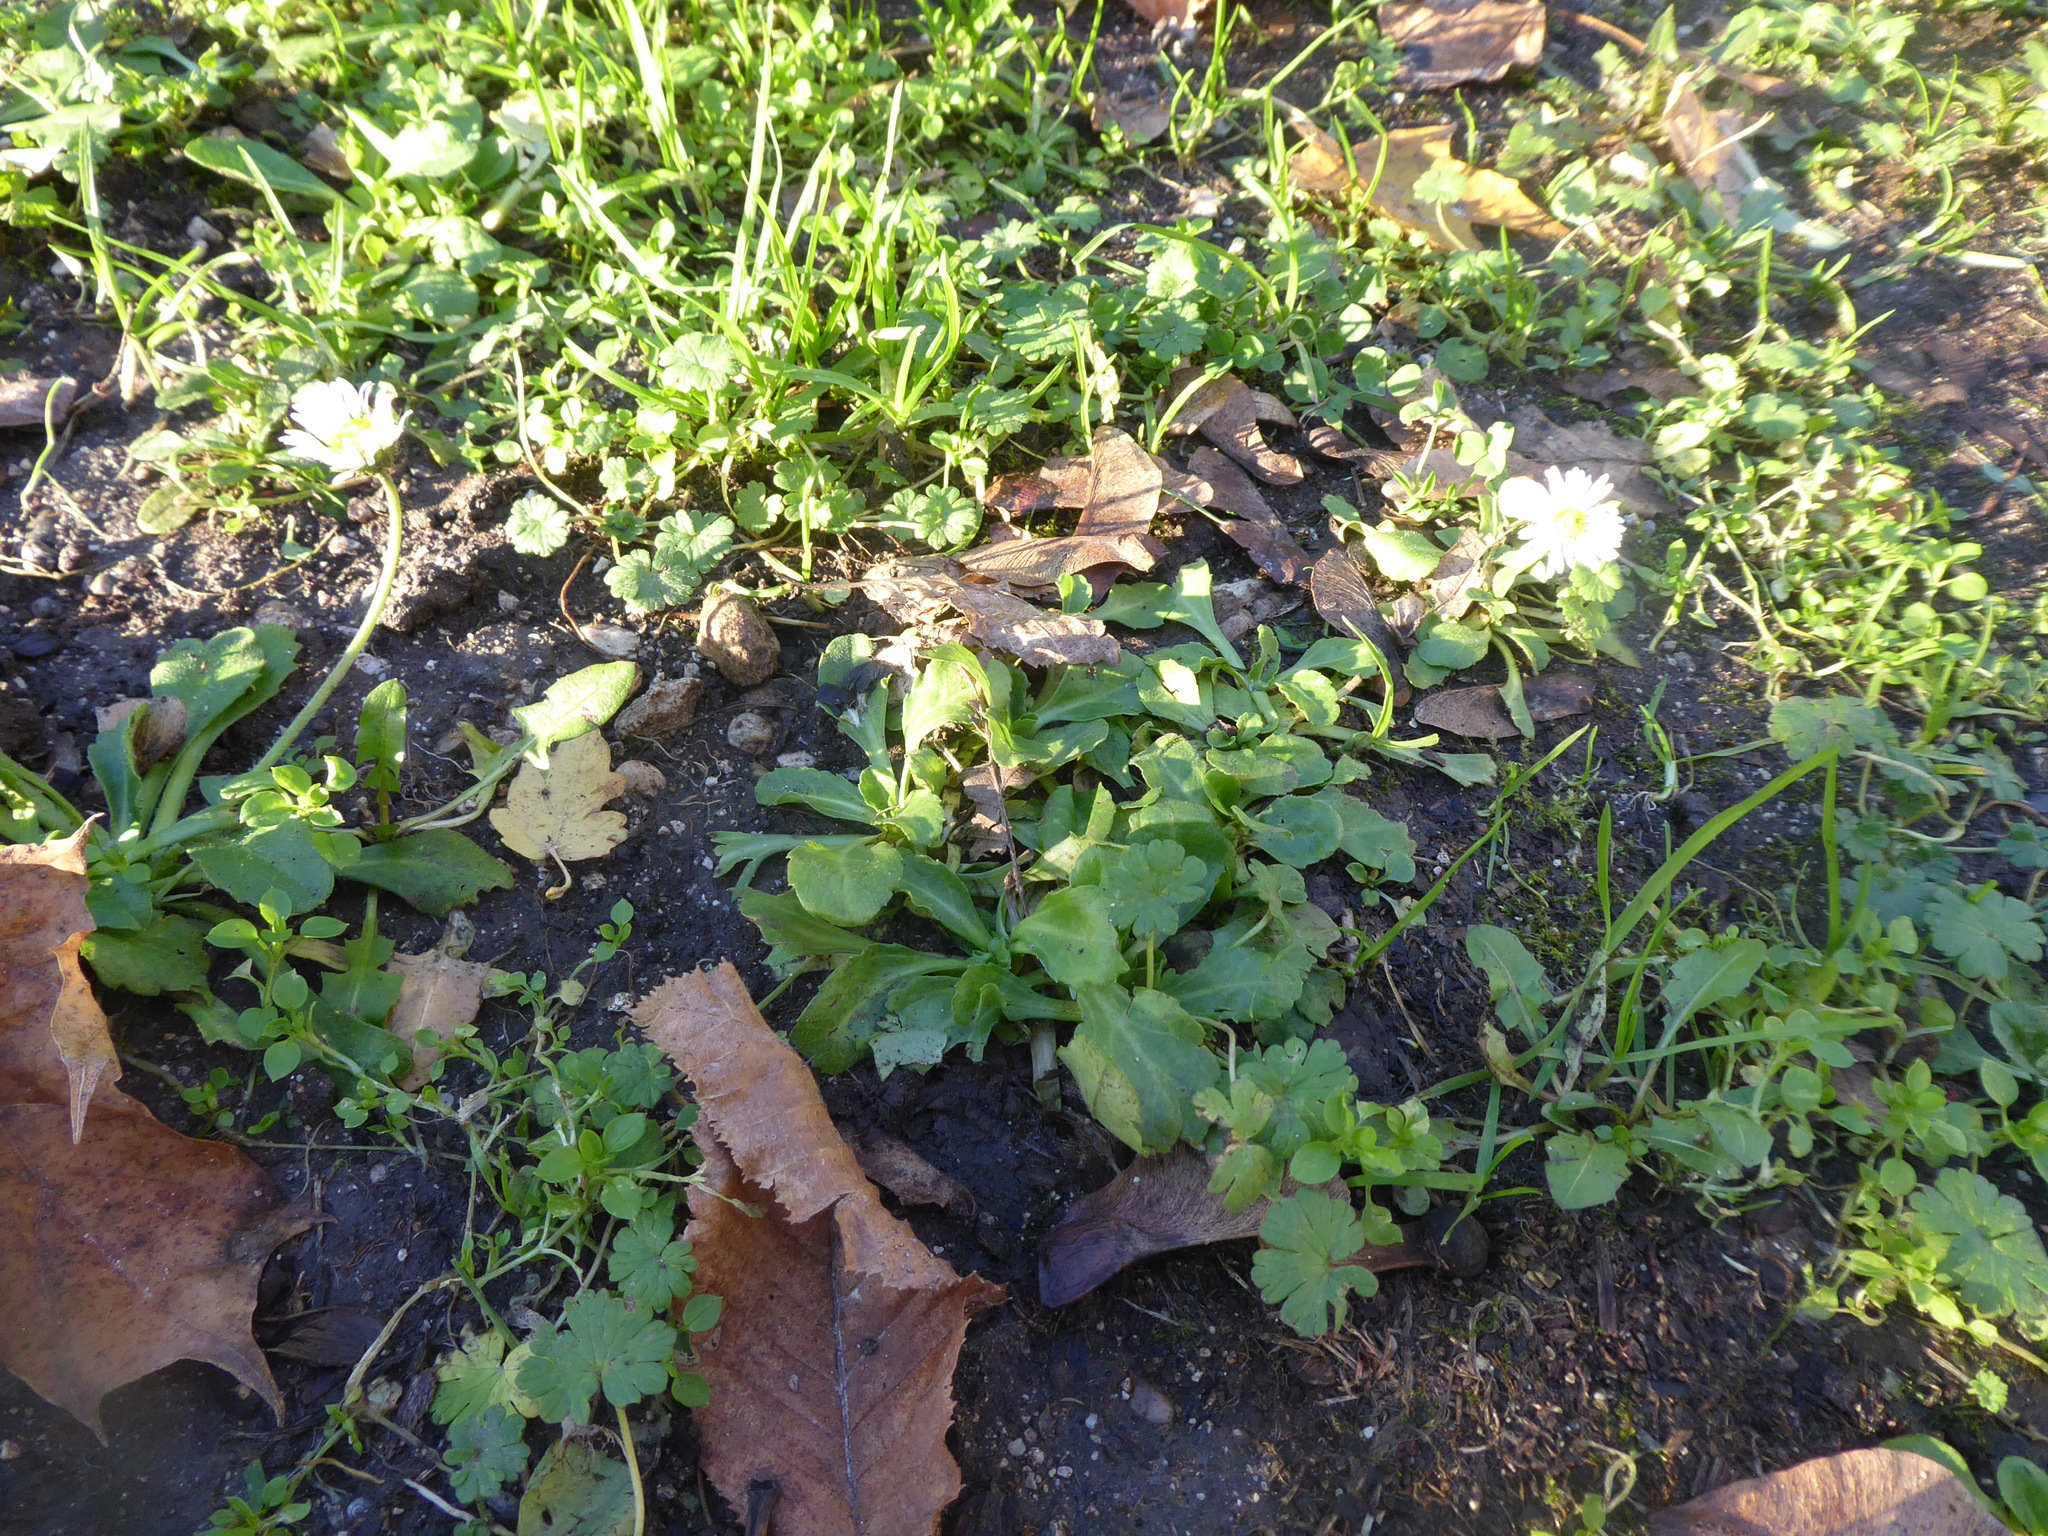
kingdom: Plantae
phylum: Tracheophyta
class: Magnoliopsida
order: Asterales
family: Asteraceae
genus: Bellis
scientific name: Bellis perennis
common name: Lawndaisy
